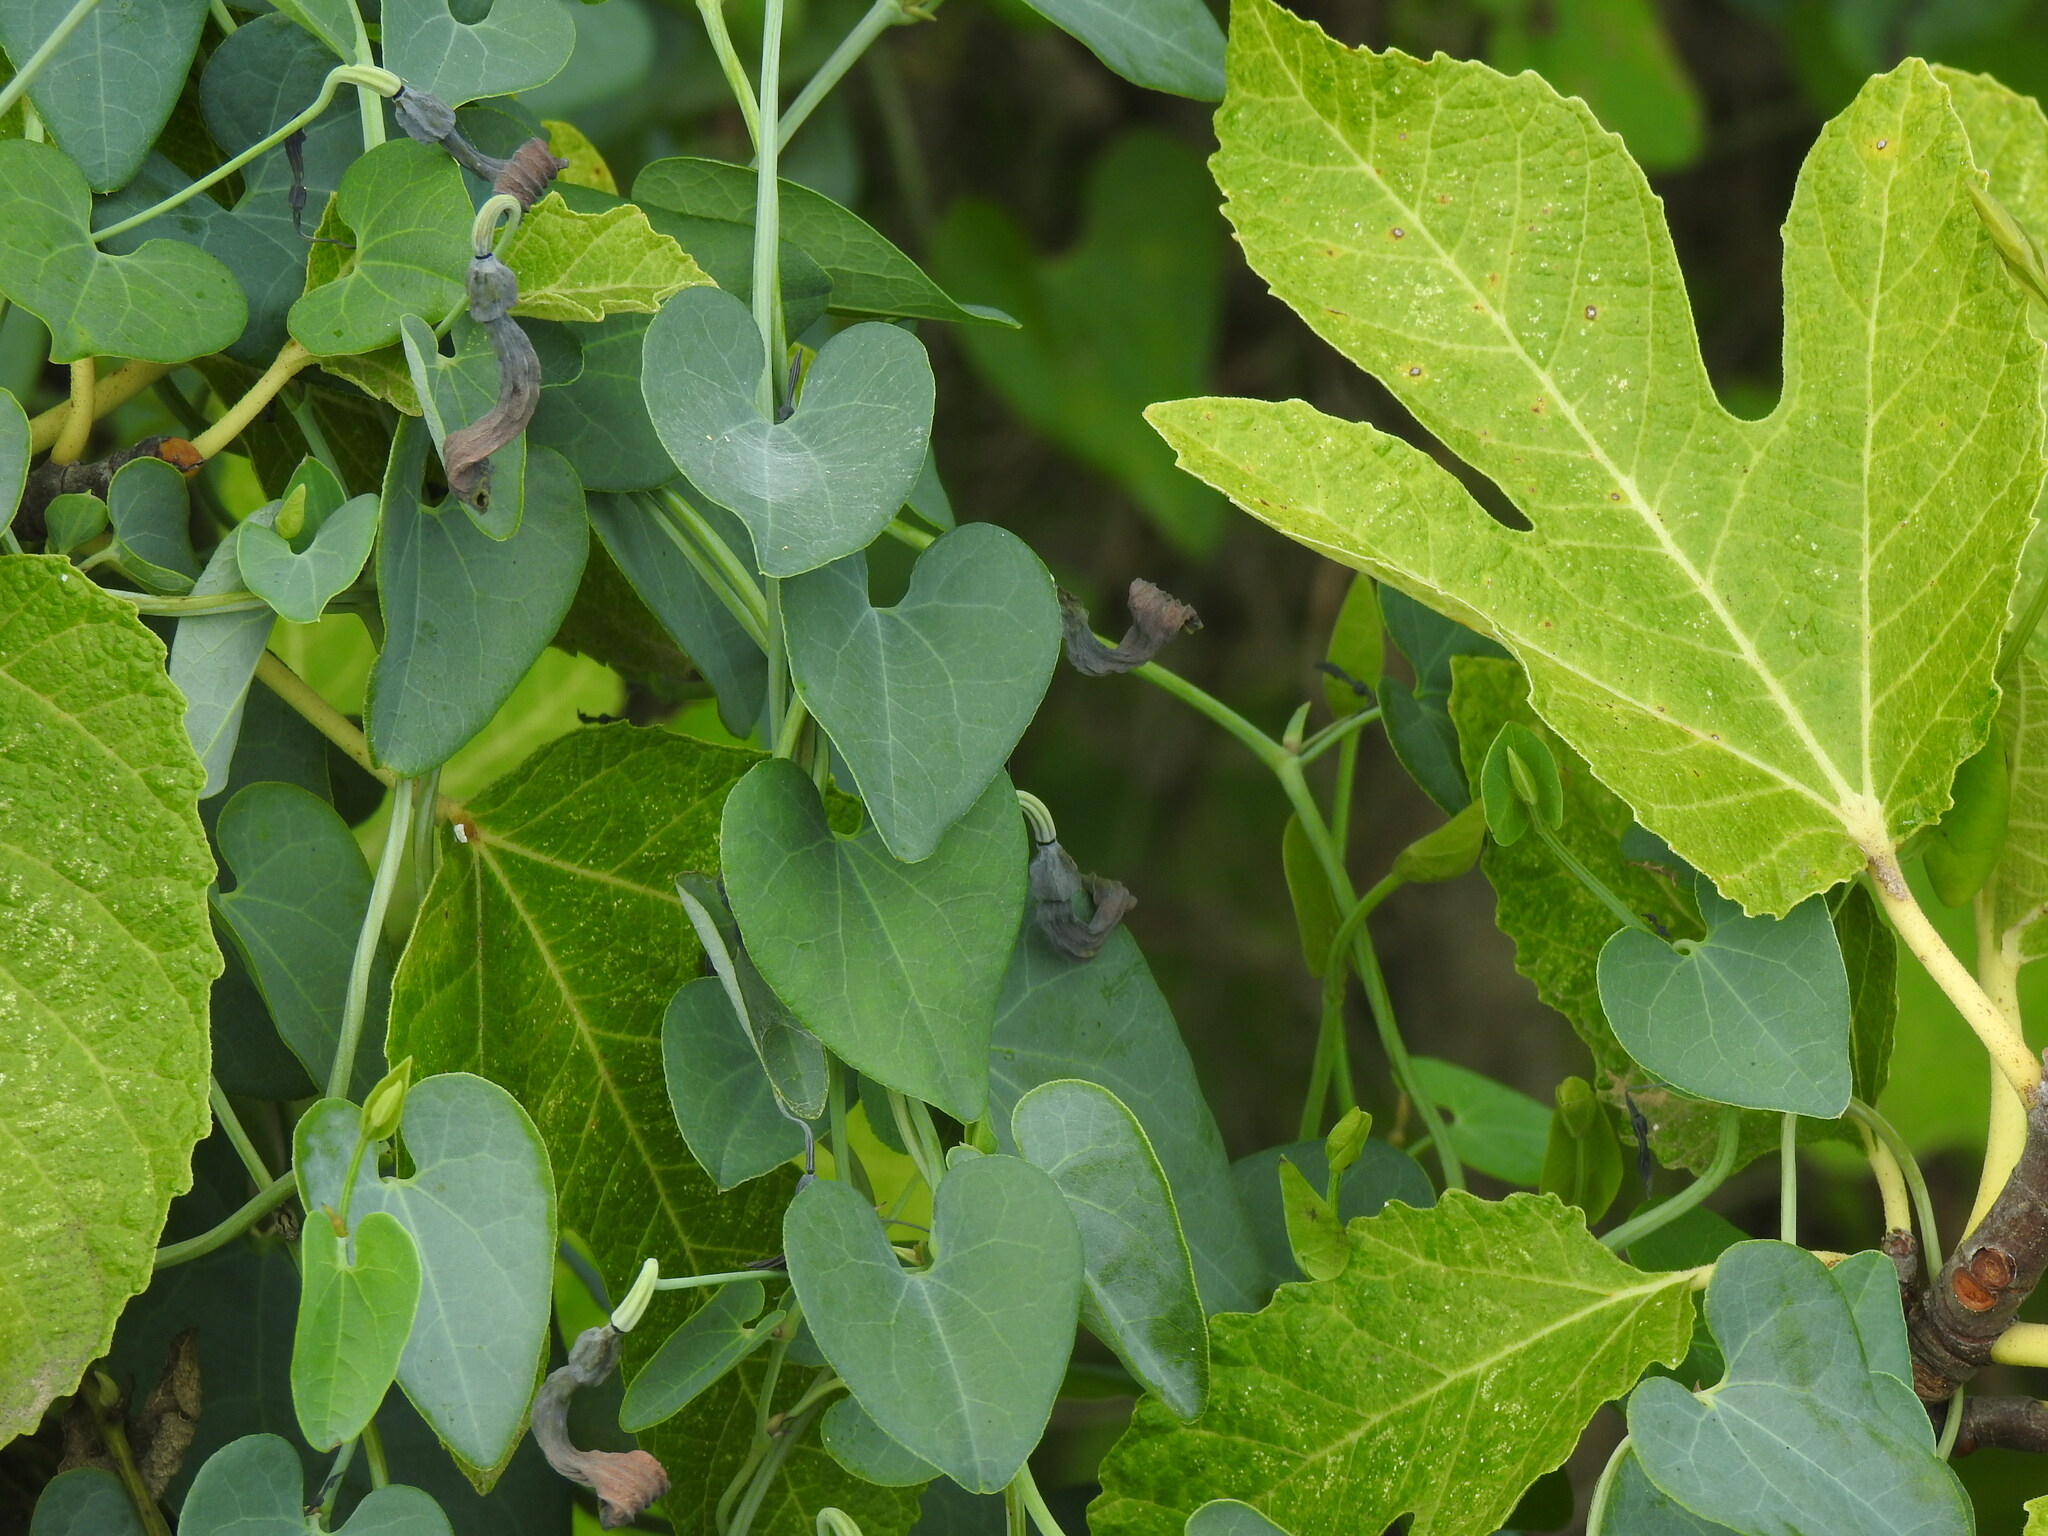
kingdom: Plantae
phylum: Tracheophyta
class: Magnoliopsida
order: Piperales
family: Aristolochiaceae
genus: Aristolochia
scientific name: Aristolochia baetica
